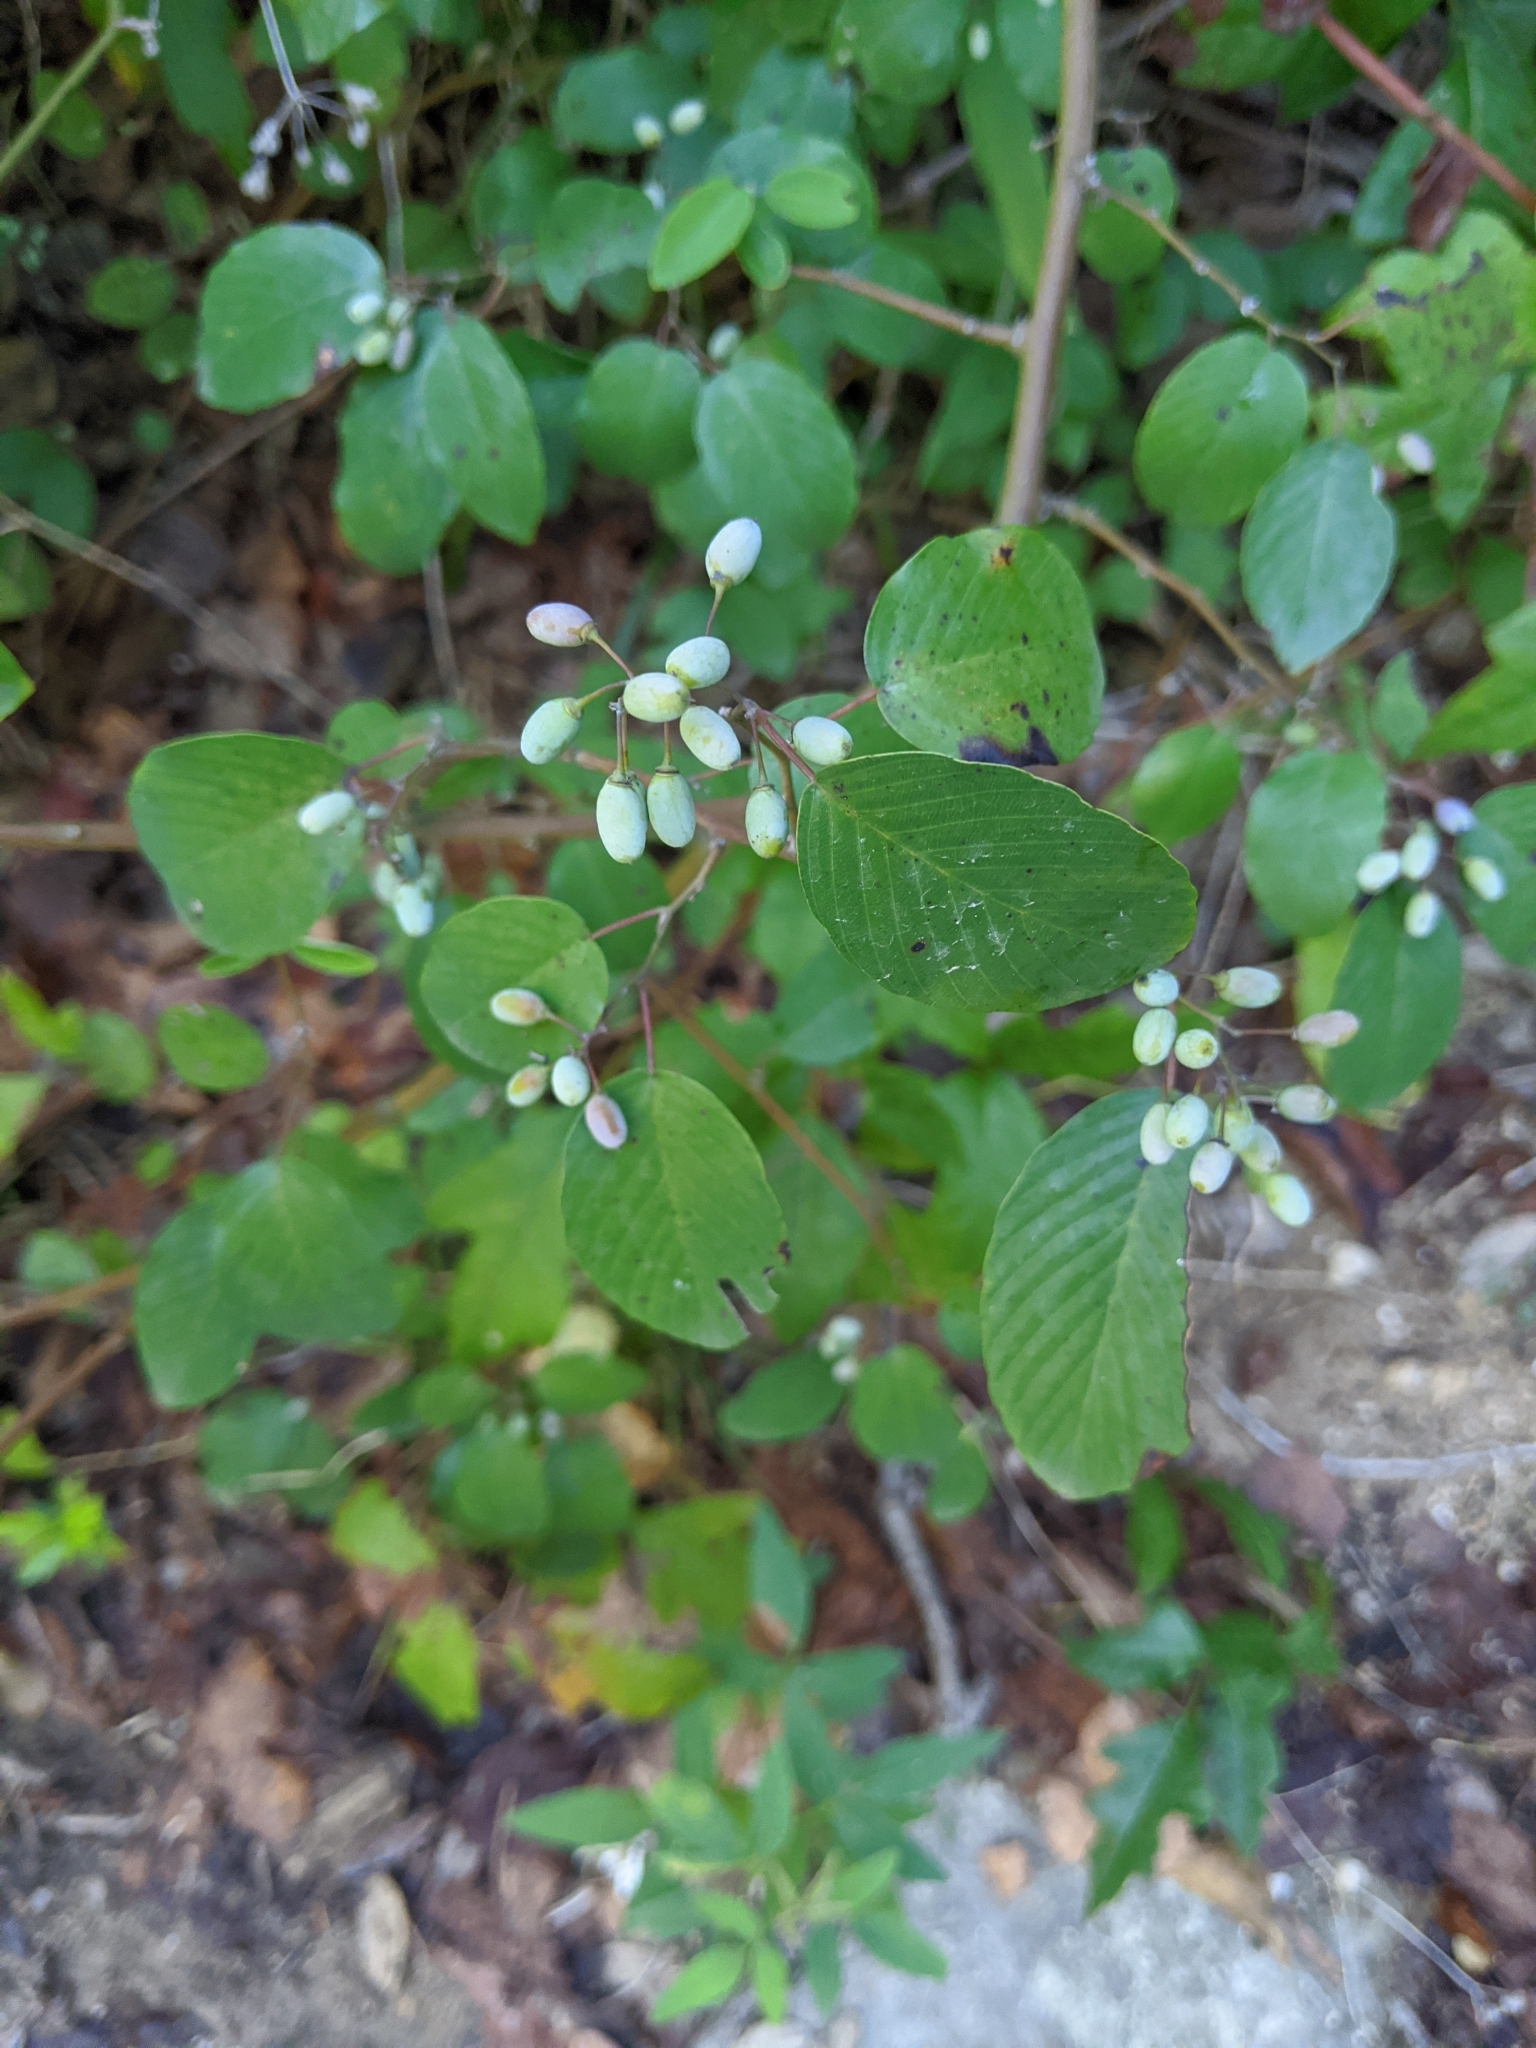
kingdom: Plantae
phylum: Tracheophyta
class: Magnoliopsida
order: Rosales
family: Rhamnaceae
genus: Berchemia
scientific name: Berchemia scandens
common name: Supplejack
